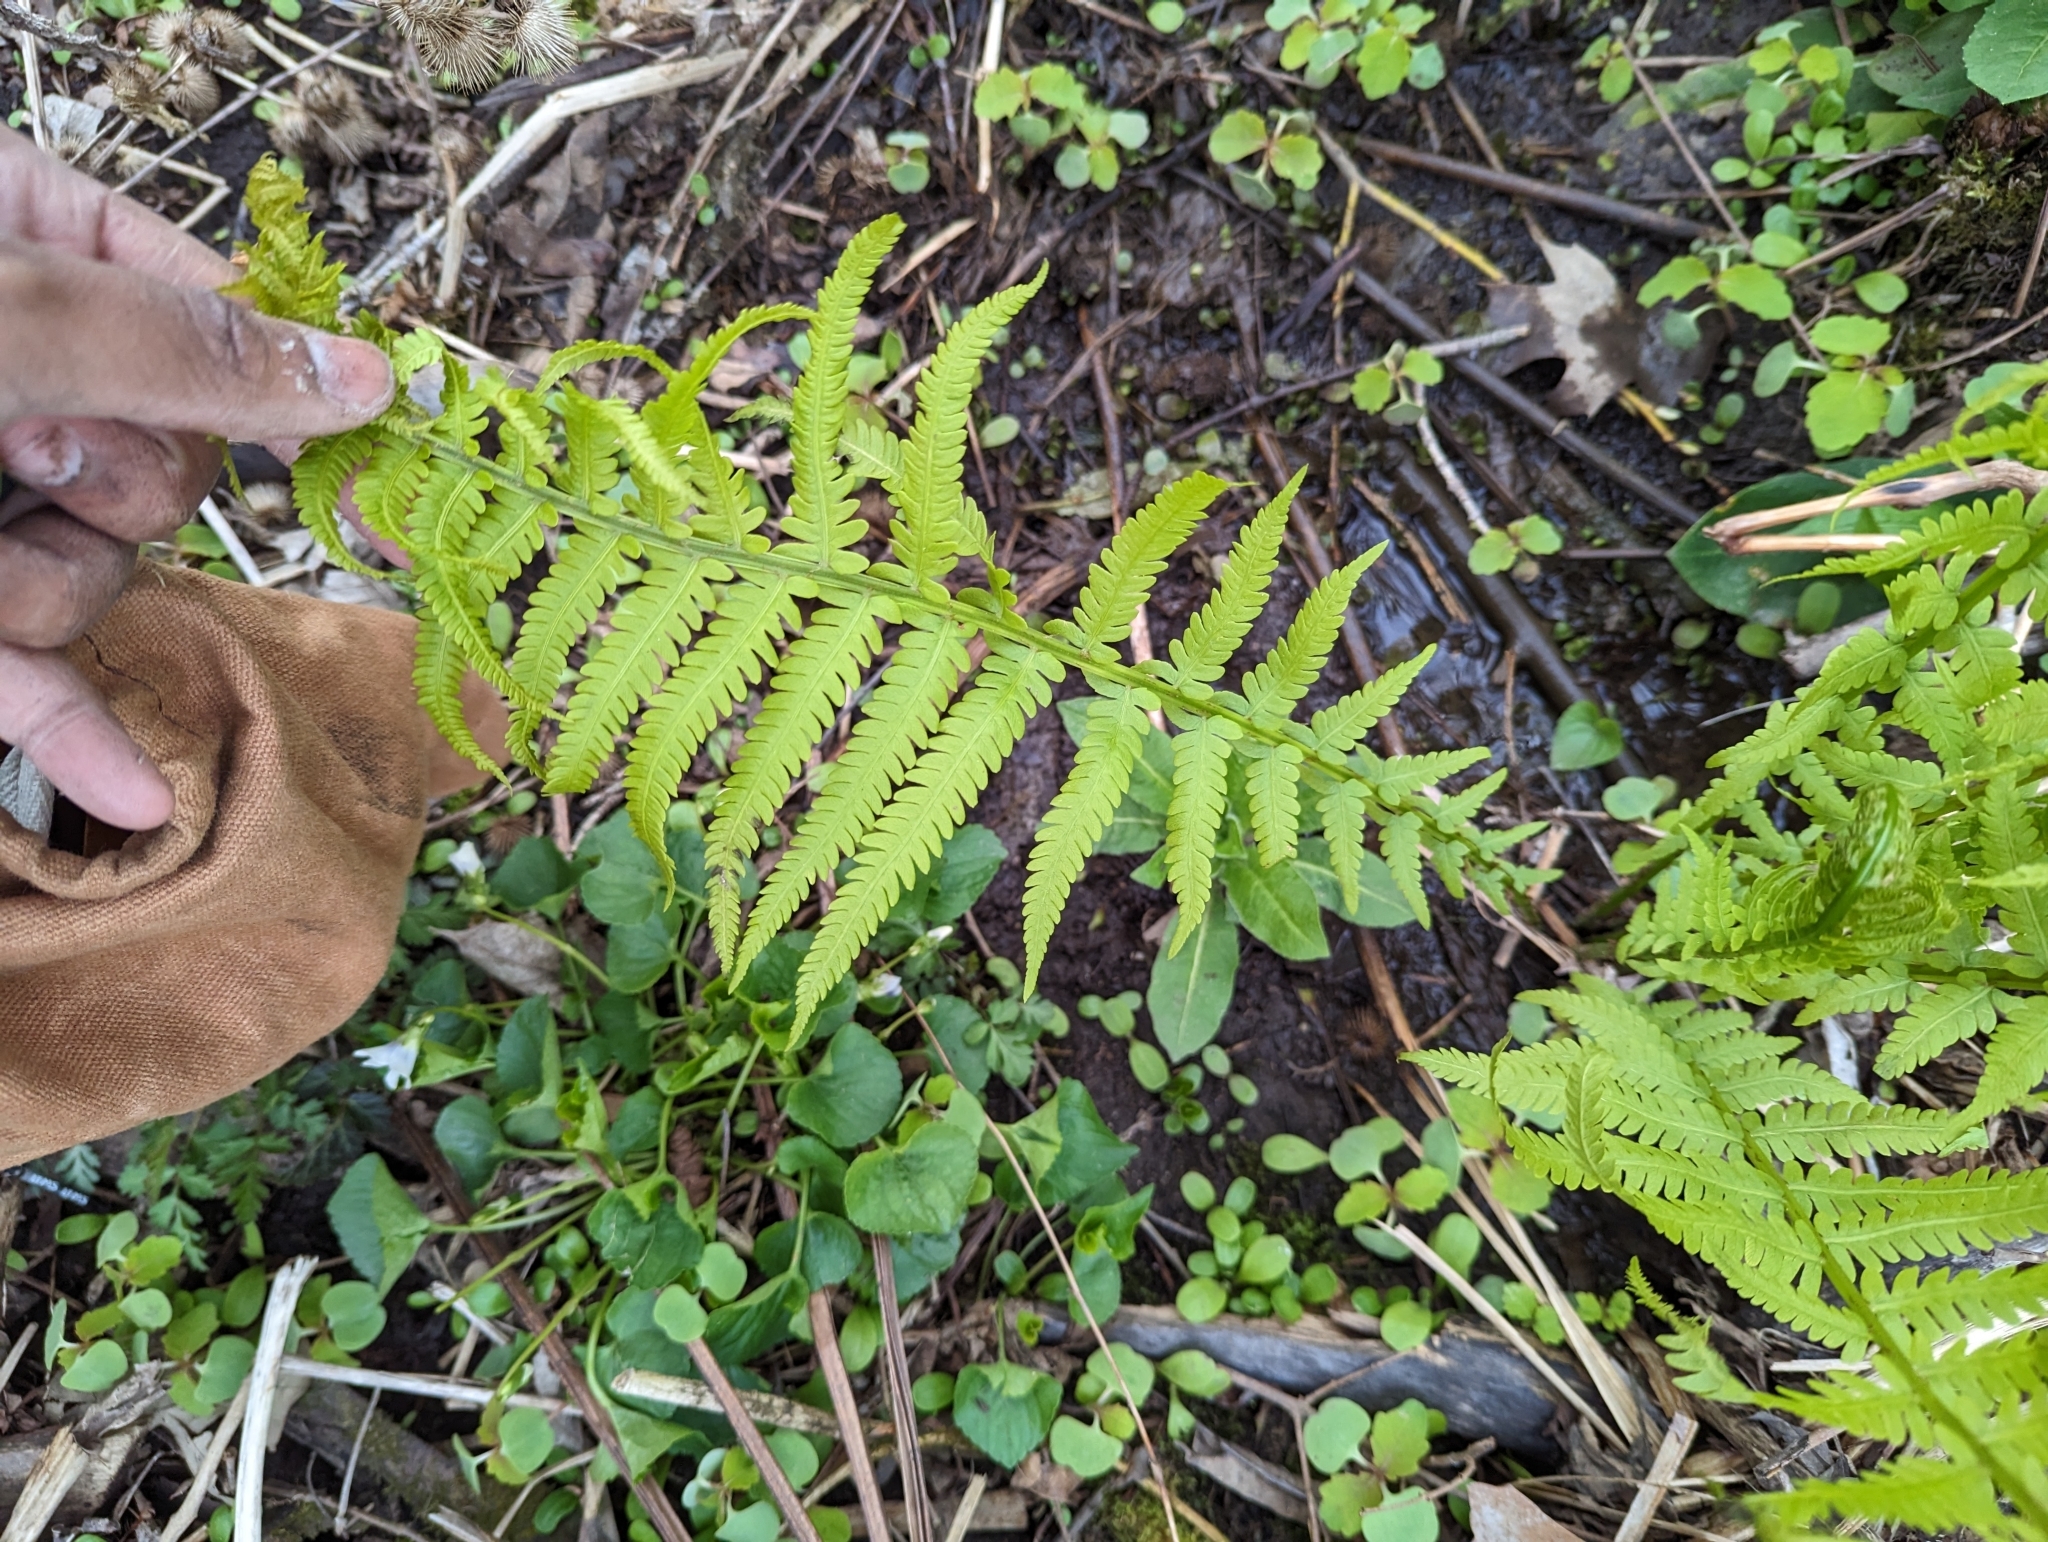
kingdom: Plantae
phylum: Tracheophyta
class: Polypodiopsida
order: Polypodiales
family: Onocleaceae
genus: Matteuccia
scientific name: Matteuccia struthiopteris
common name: Ostrich fern
